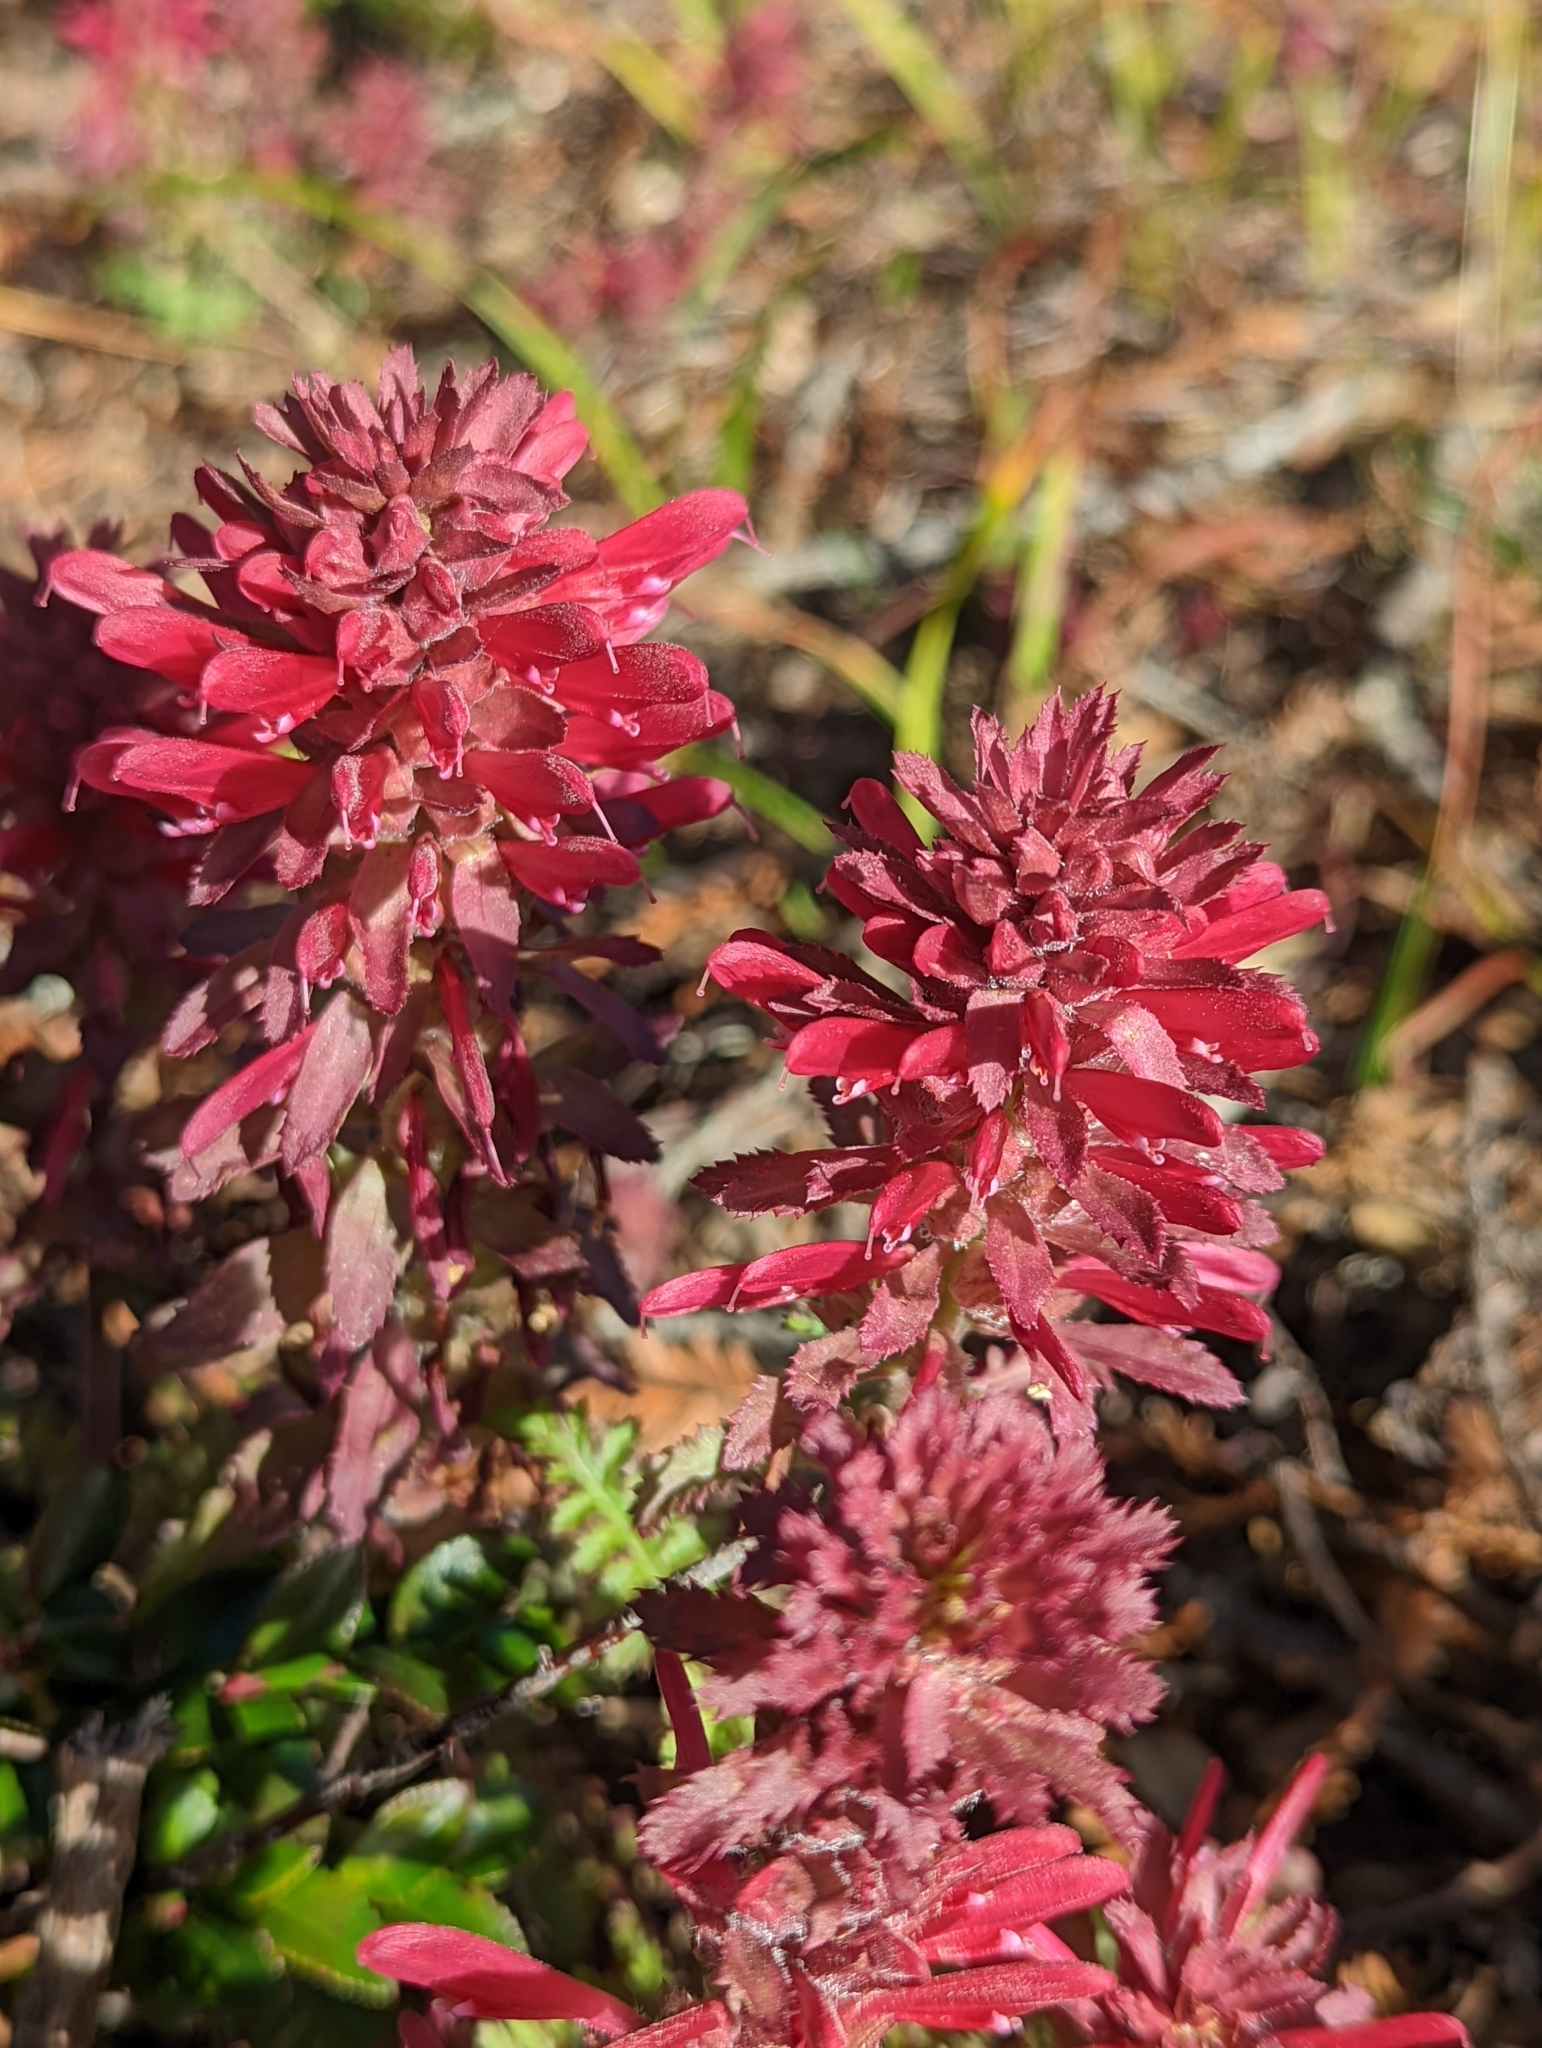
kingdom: Plantae
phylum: Tracheophyta
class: Magnoliopsida
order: Lamiales
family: Orobanchaceae
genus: Pedicularis
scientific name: Pedicularis densiflora
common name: Indian warrior
